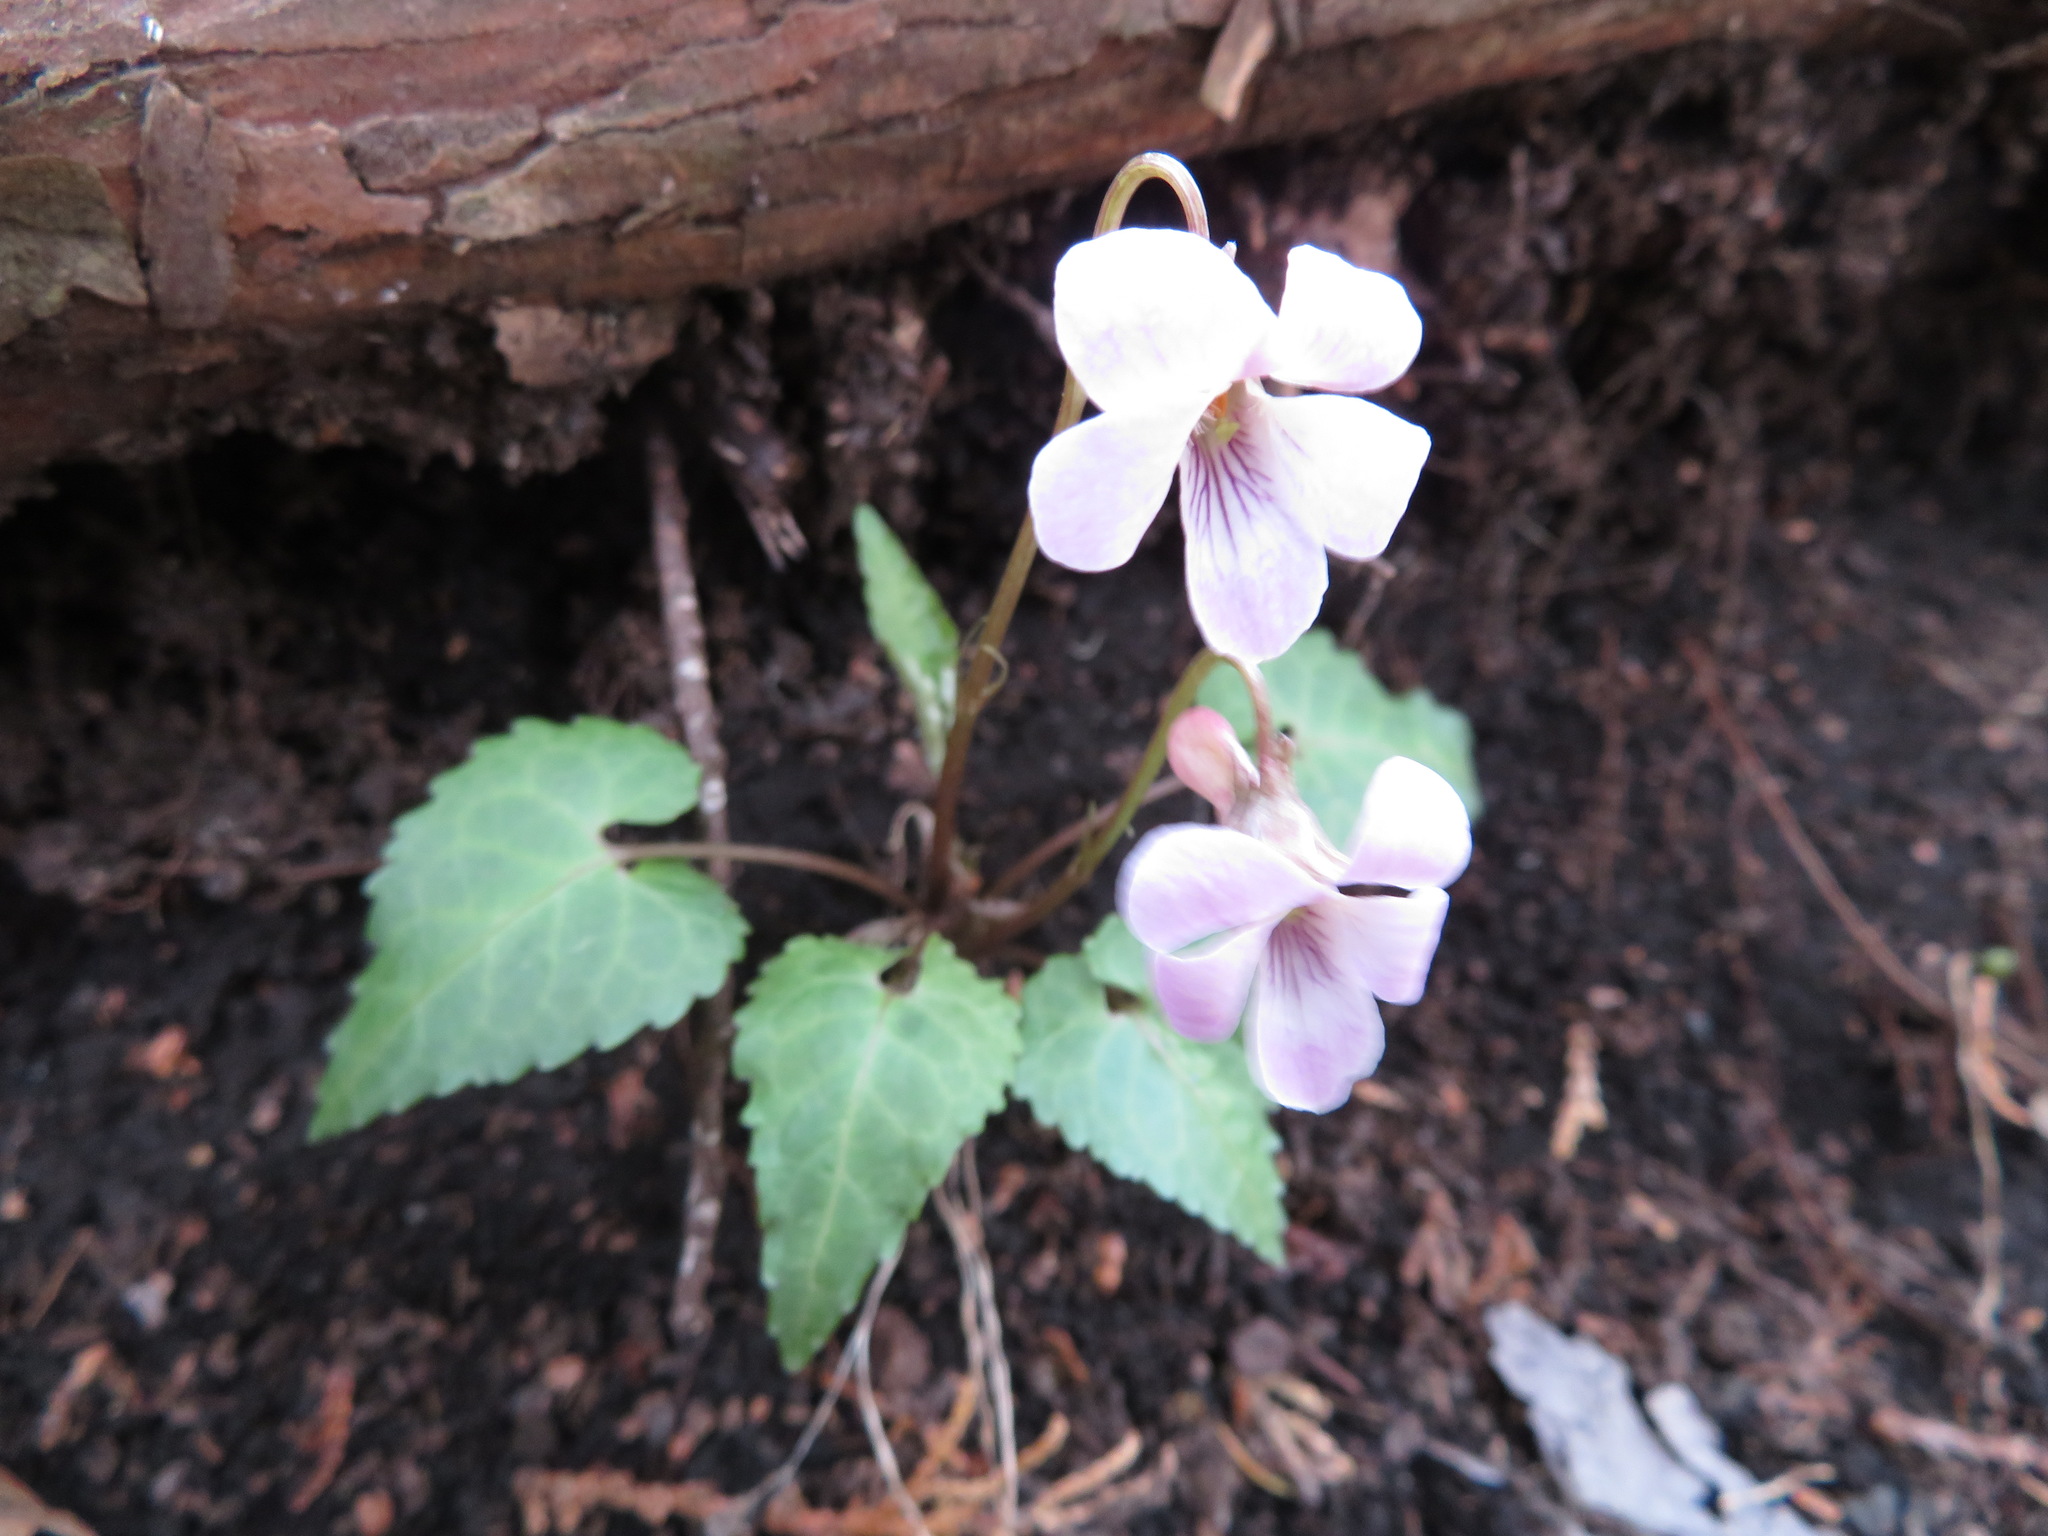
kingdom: Plantae
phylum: Tracheophyta
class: Magnoliopsida
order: Malpighiales
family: Violaceae
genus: Viola
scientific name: Viola tokubuchiana
